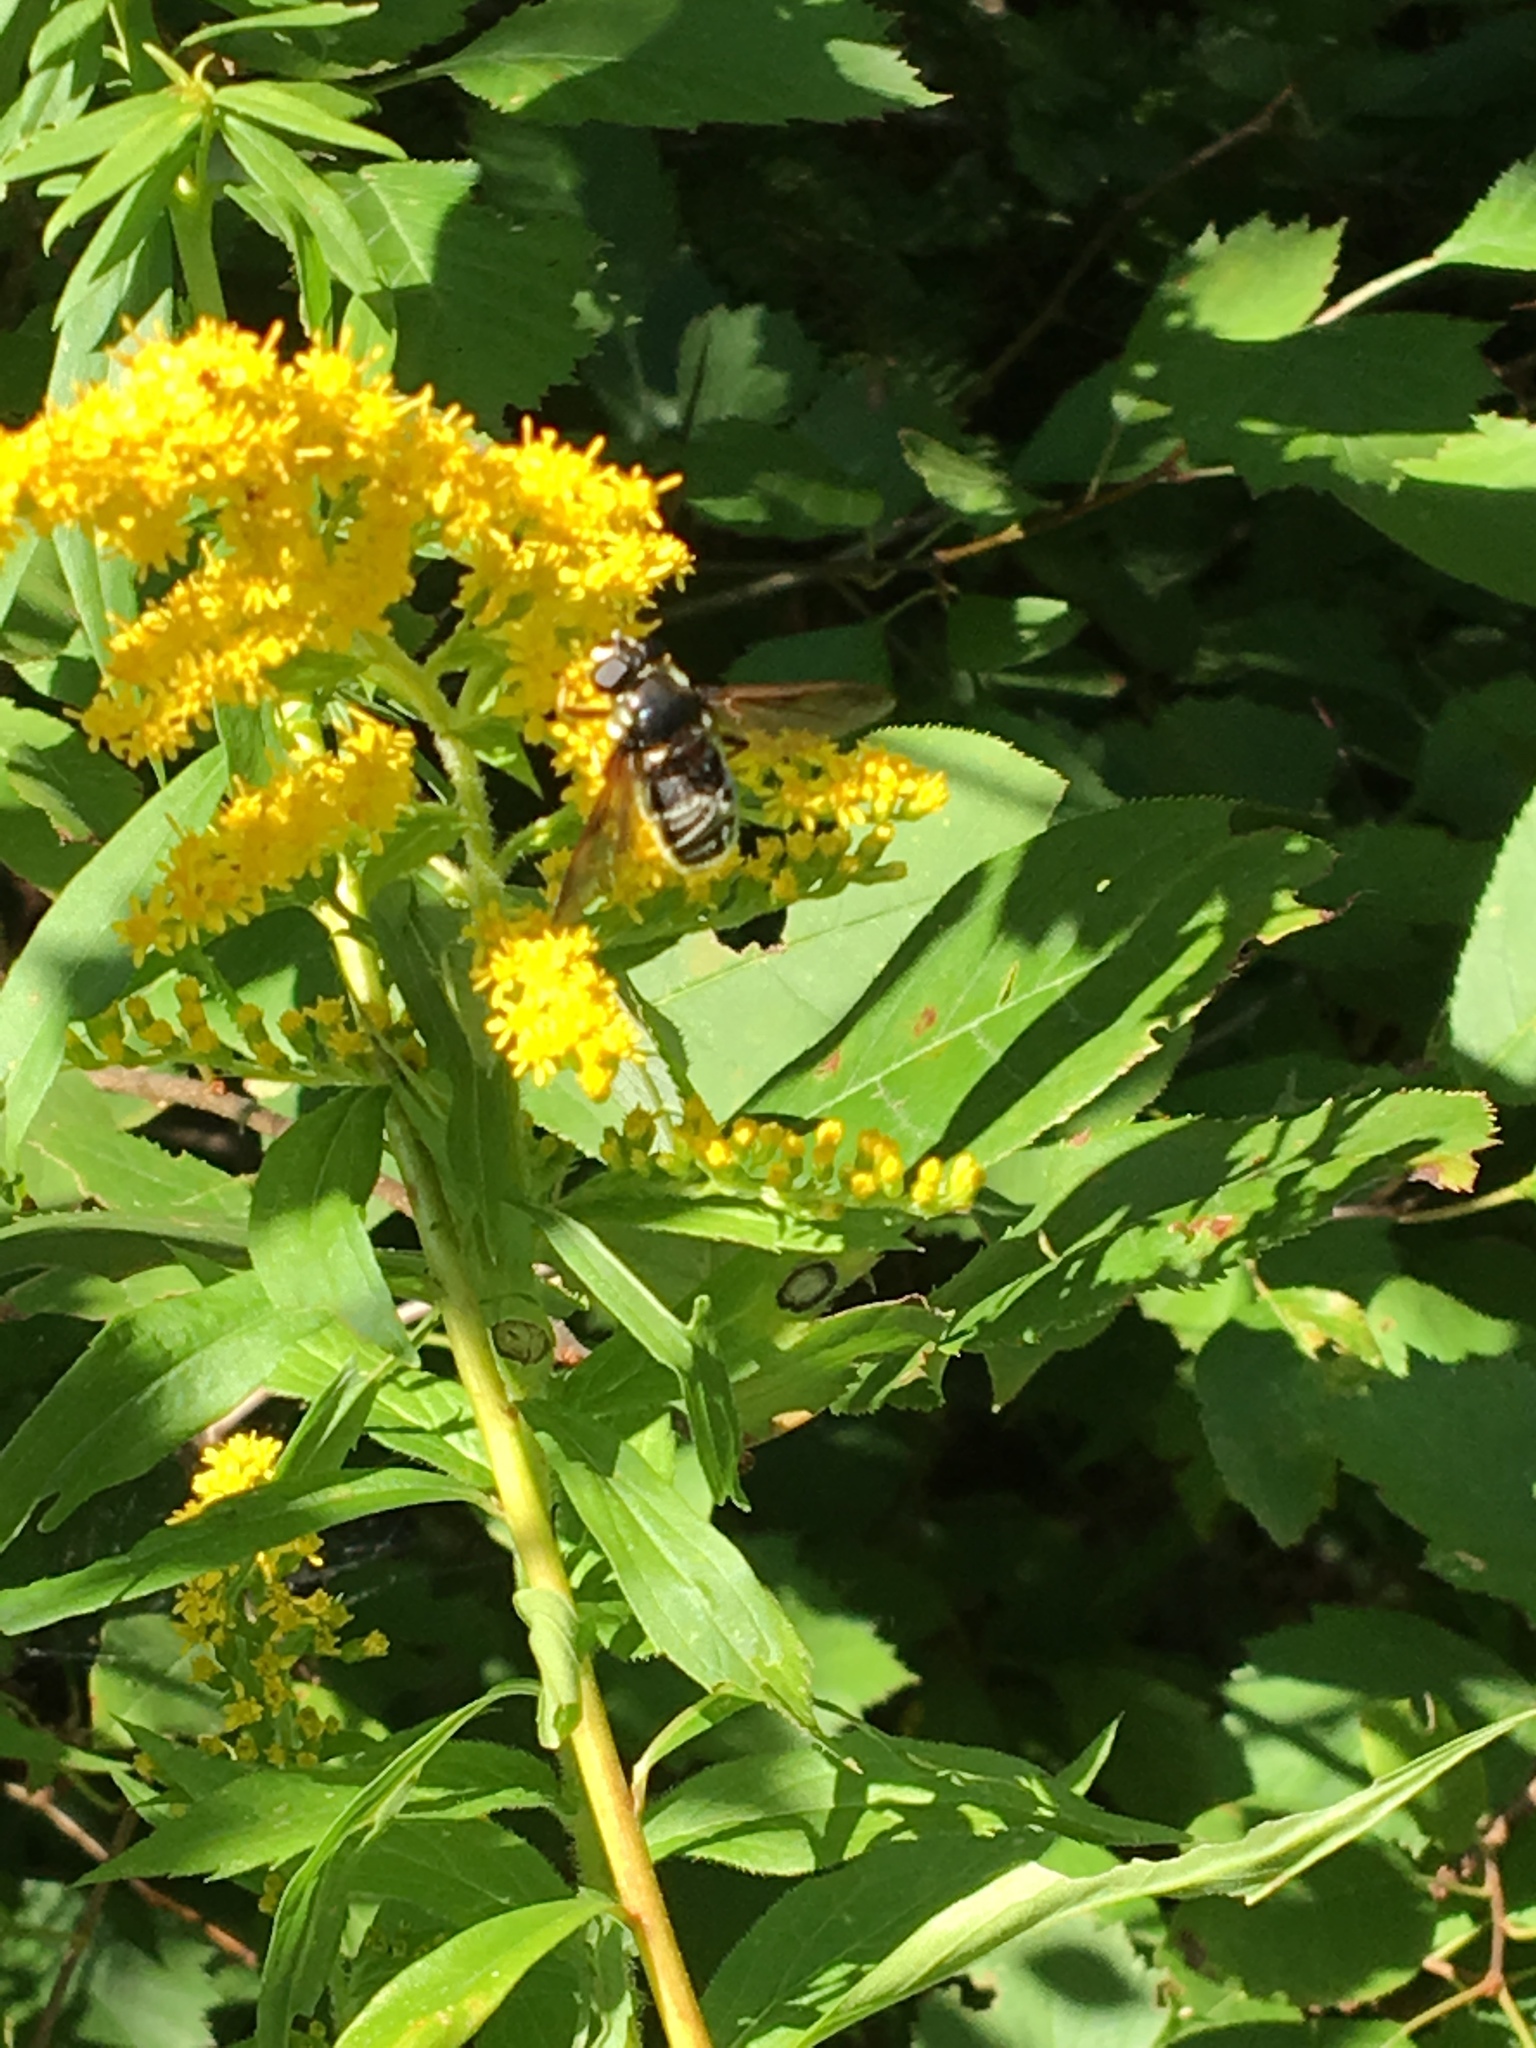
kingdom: Animalia
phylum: Arthropoda
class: Insecta
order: Diptera
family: Syrphidae
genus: Sericomyia
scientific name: Sericomyia militaris
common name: Narrow-banded pond fly
